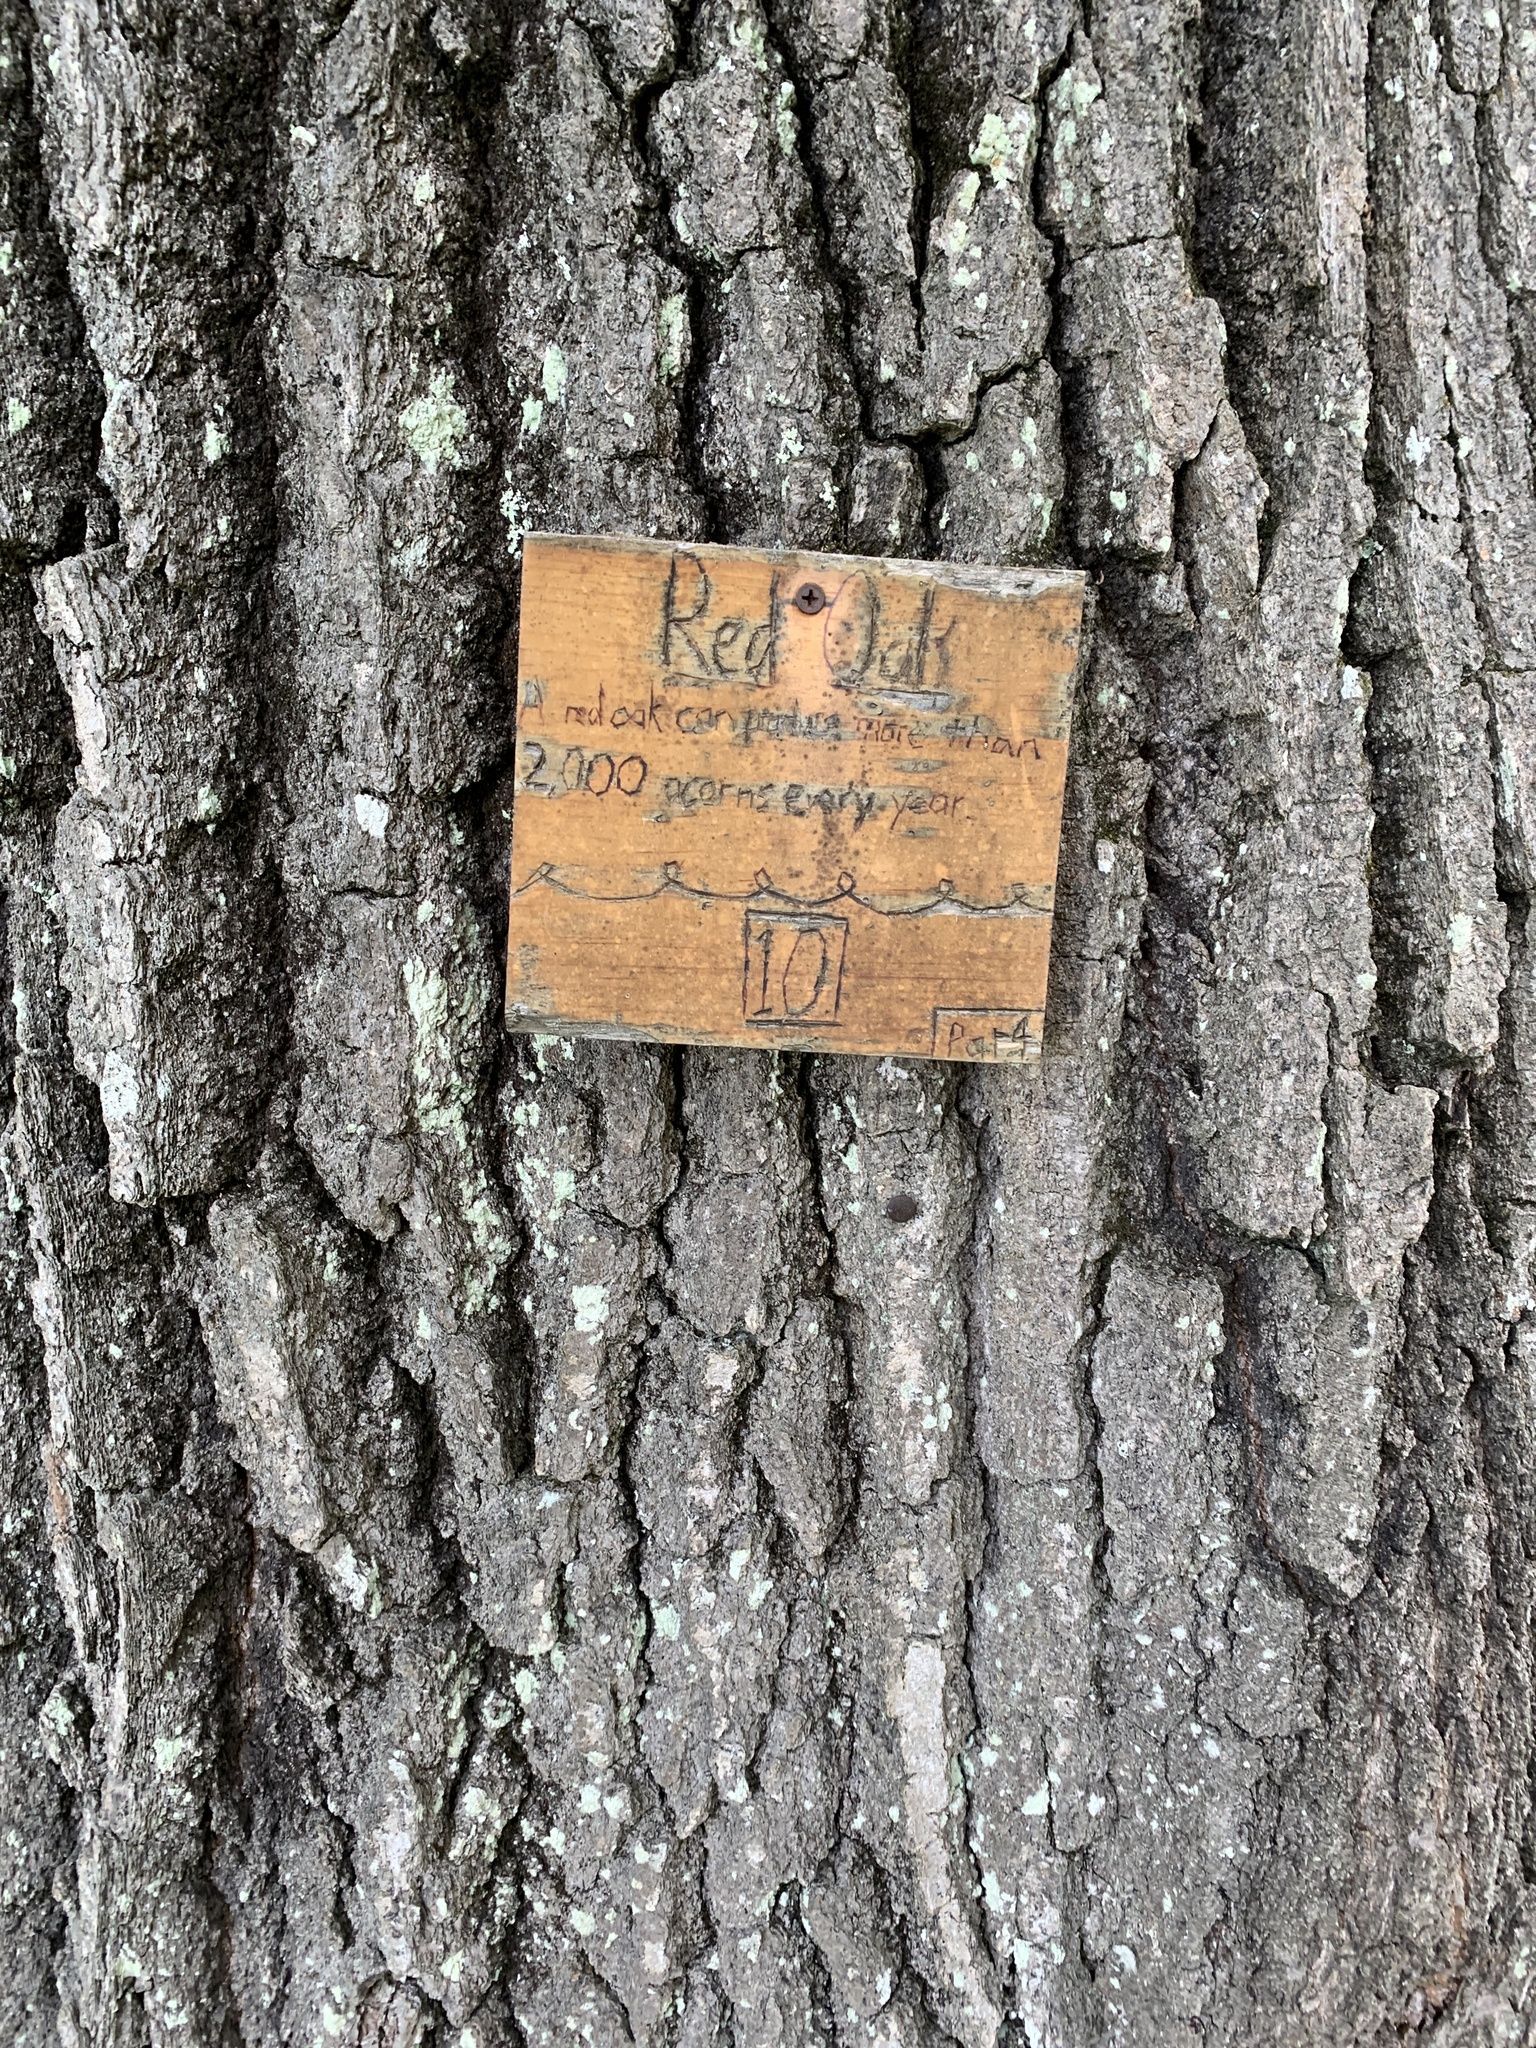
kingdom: Plantae
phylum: Tracheophyta
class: Magnoliopsida
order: Fagales
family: Fagaceae
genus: Quercus
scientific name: Quercus rubra
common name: Red oak
